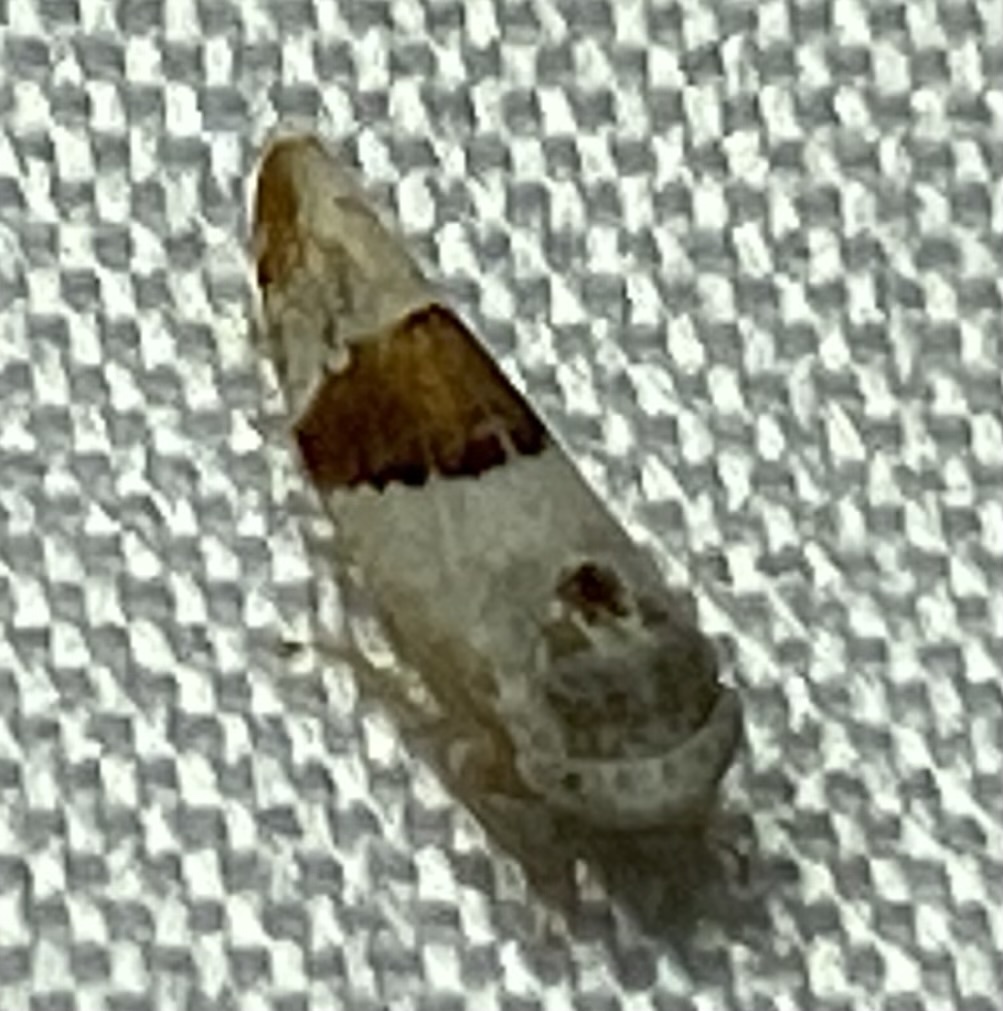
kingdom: Animalia
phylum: Arthropoda
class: Insecta
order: Hemiptera
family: Cicadellidae
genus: Norvellina
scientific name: Norvellina seminuda
